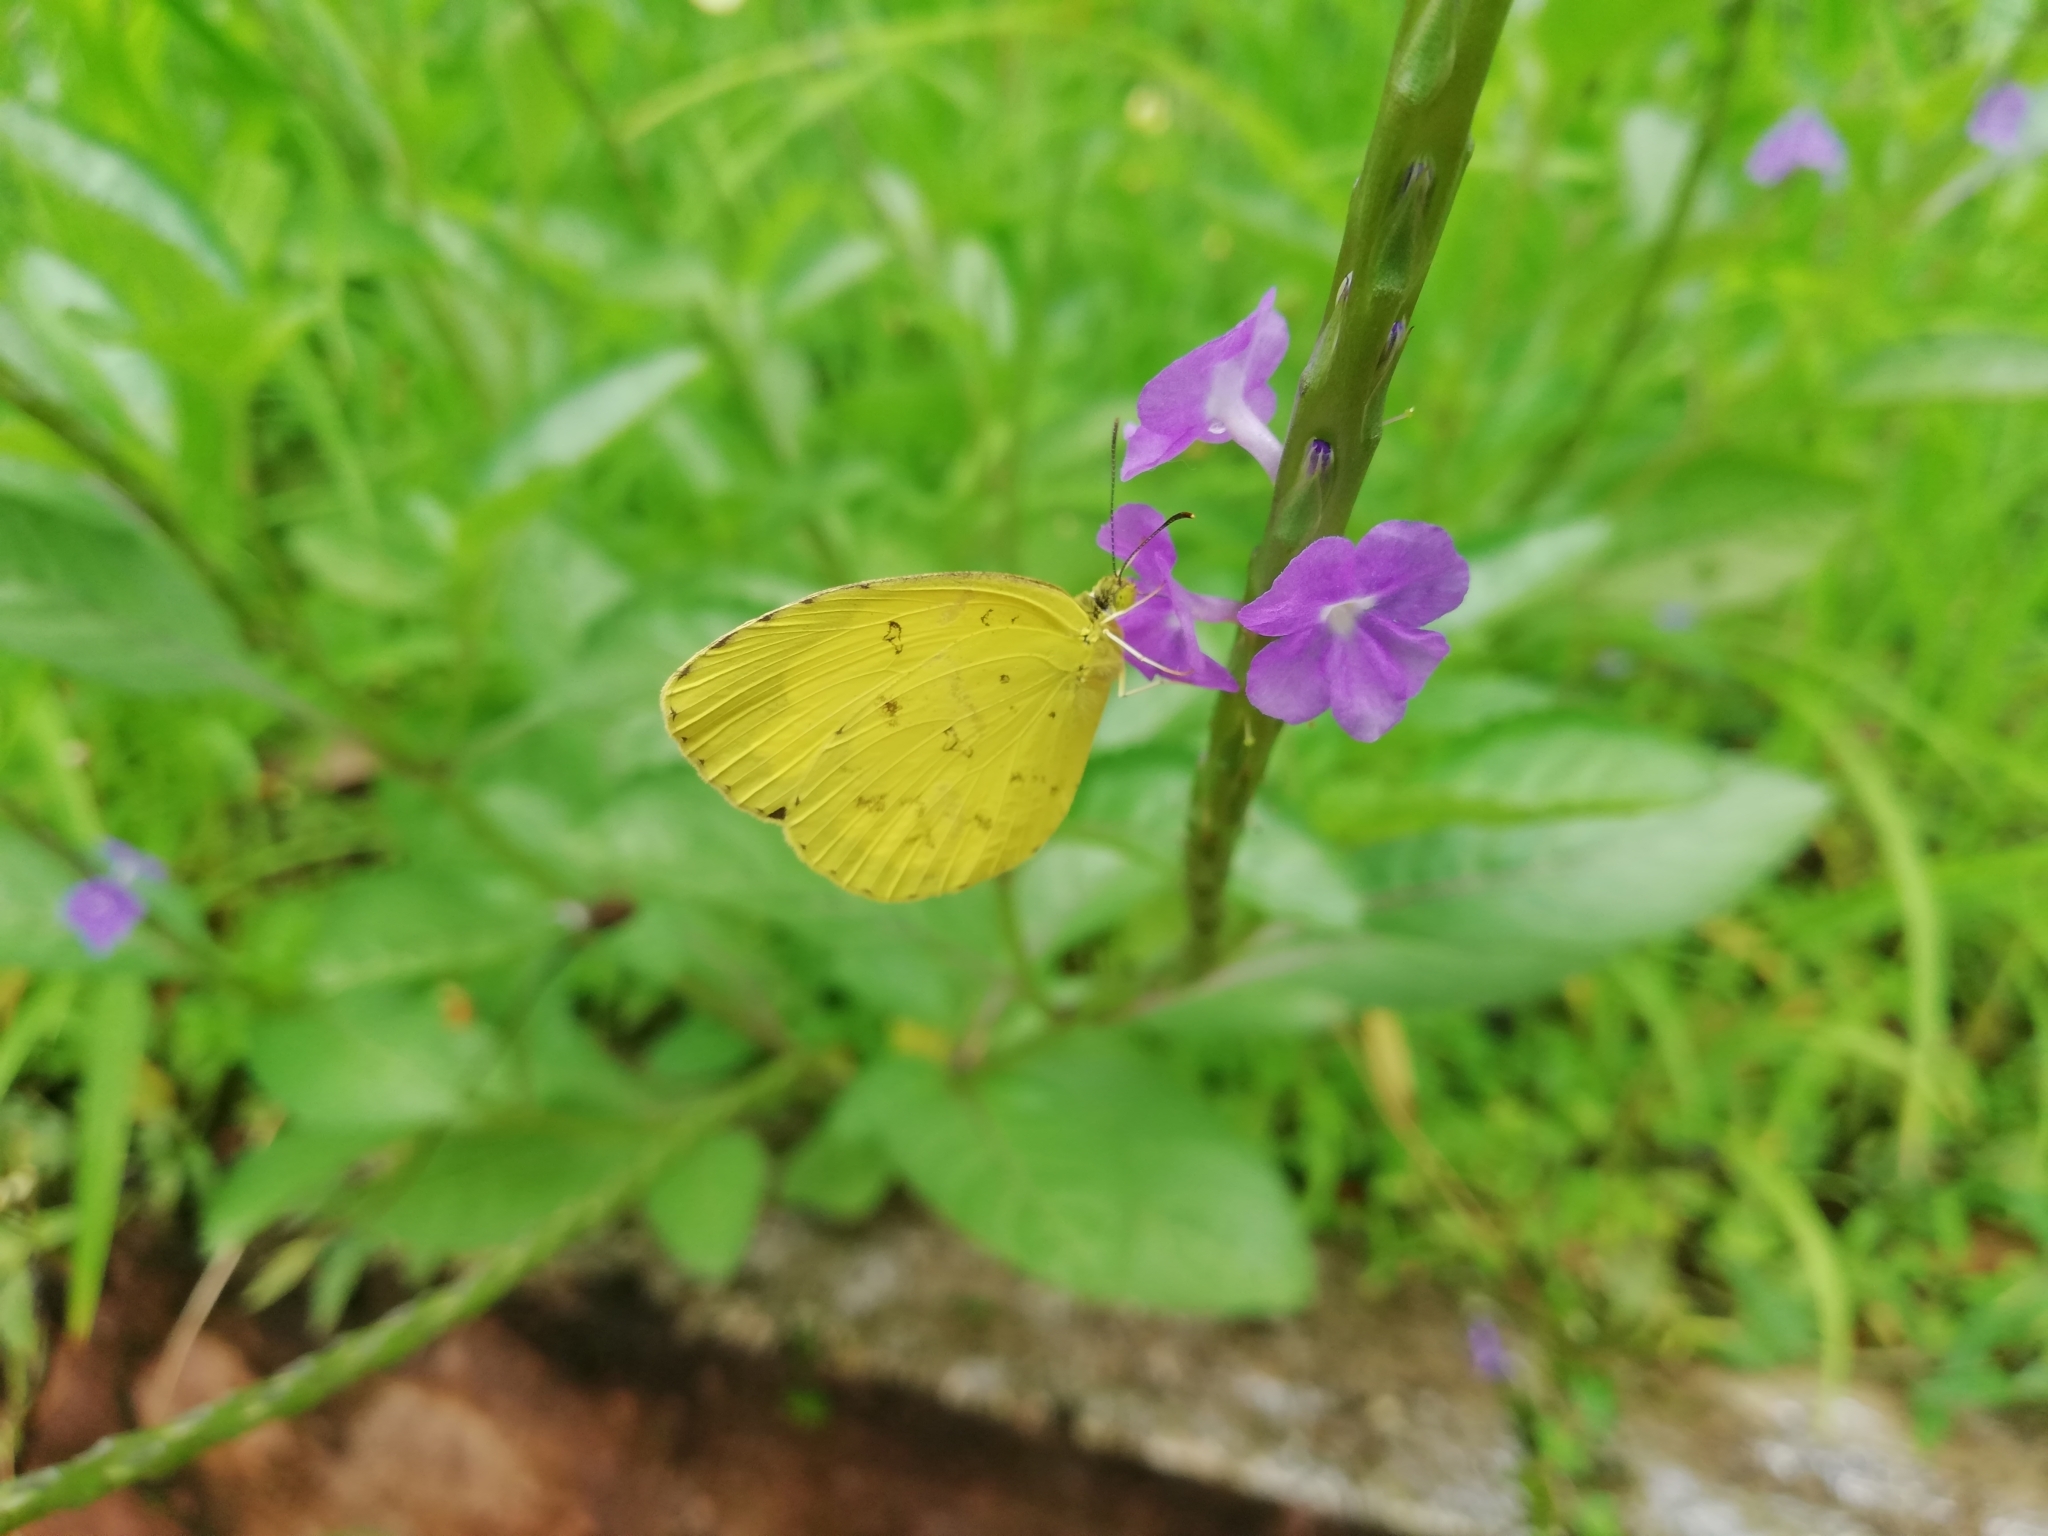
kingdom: Animalia
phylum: Arthropoda
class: Insecta
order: Lepidoptera
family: Pieridae
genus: Eurema
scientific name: Eurema hecabe
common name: Pale grass yellow
